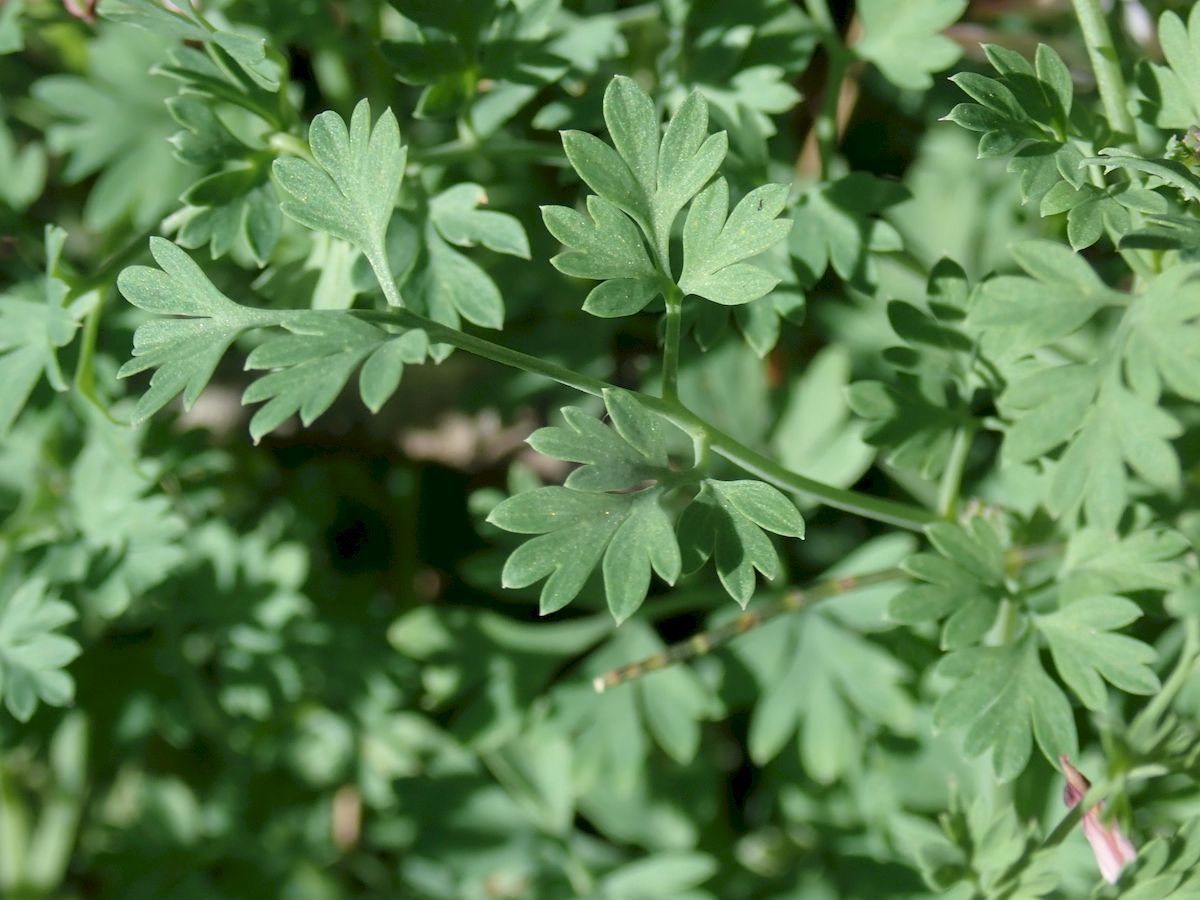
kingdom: Plantae
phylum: Tracheophyta
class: Magnoliopsida
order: Ranunculales
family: Papaveraceae
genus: Fumaria
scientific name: Fumaria officinalis
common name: Common fumitory
